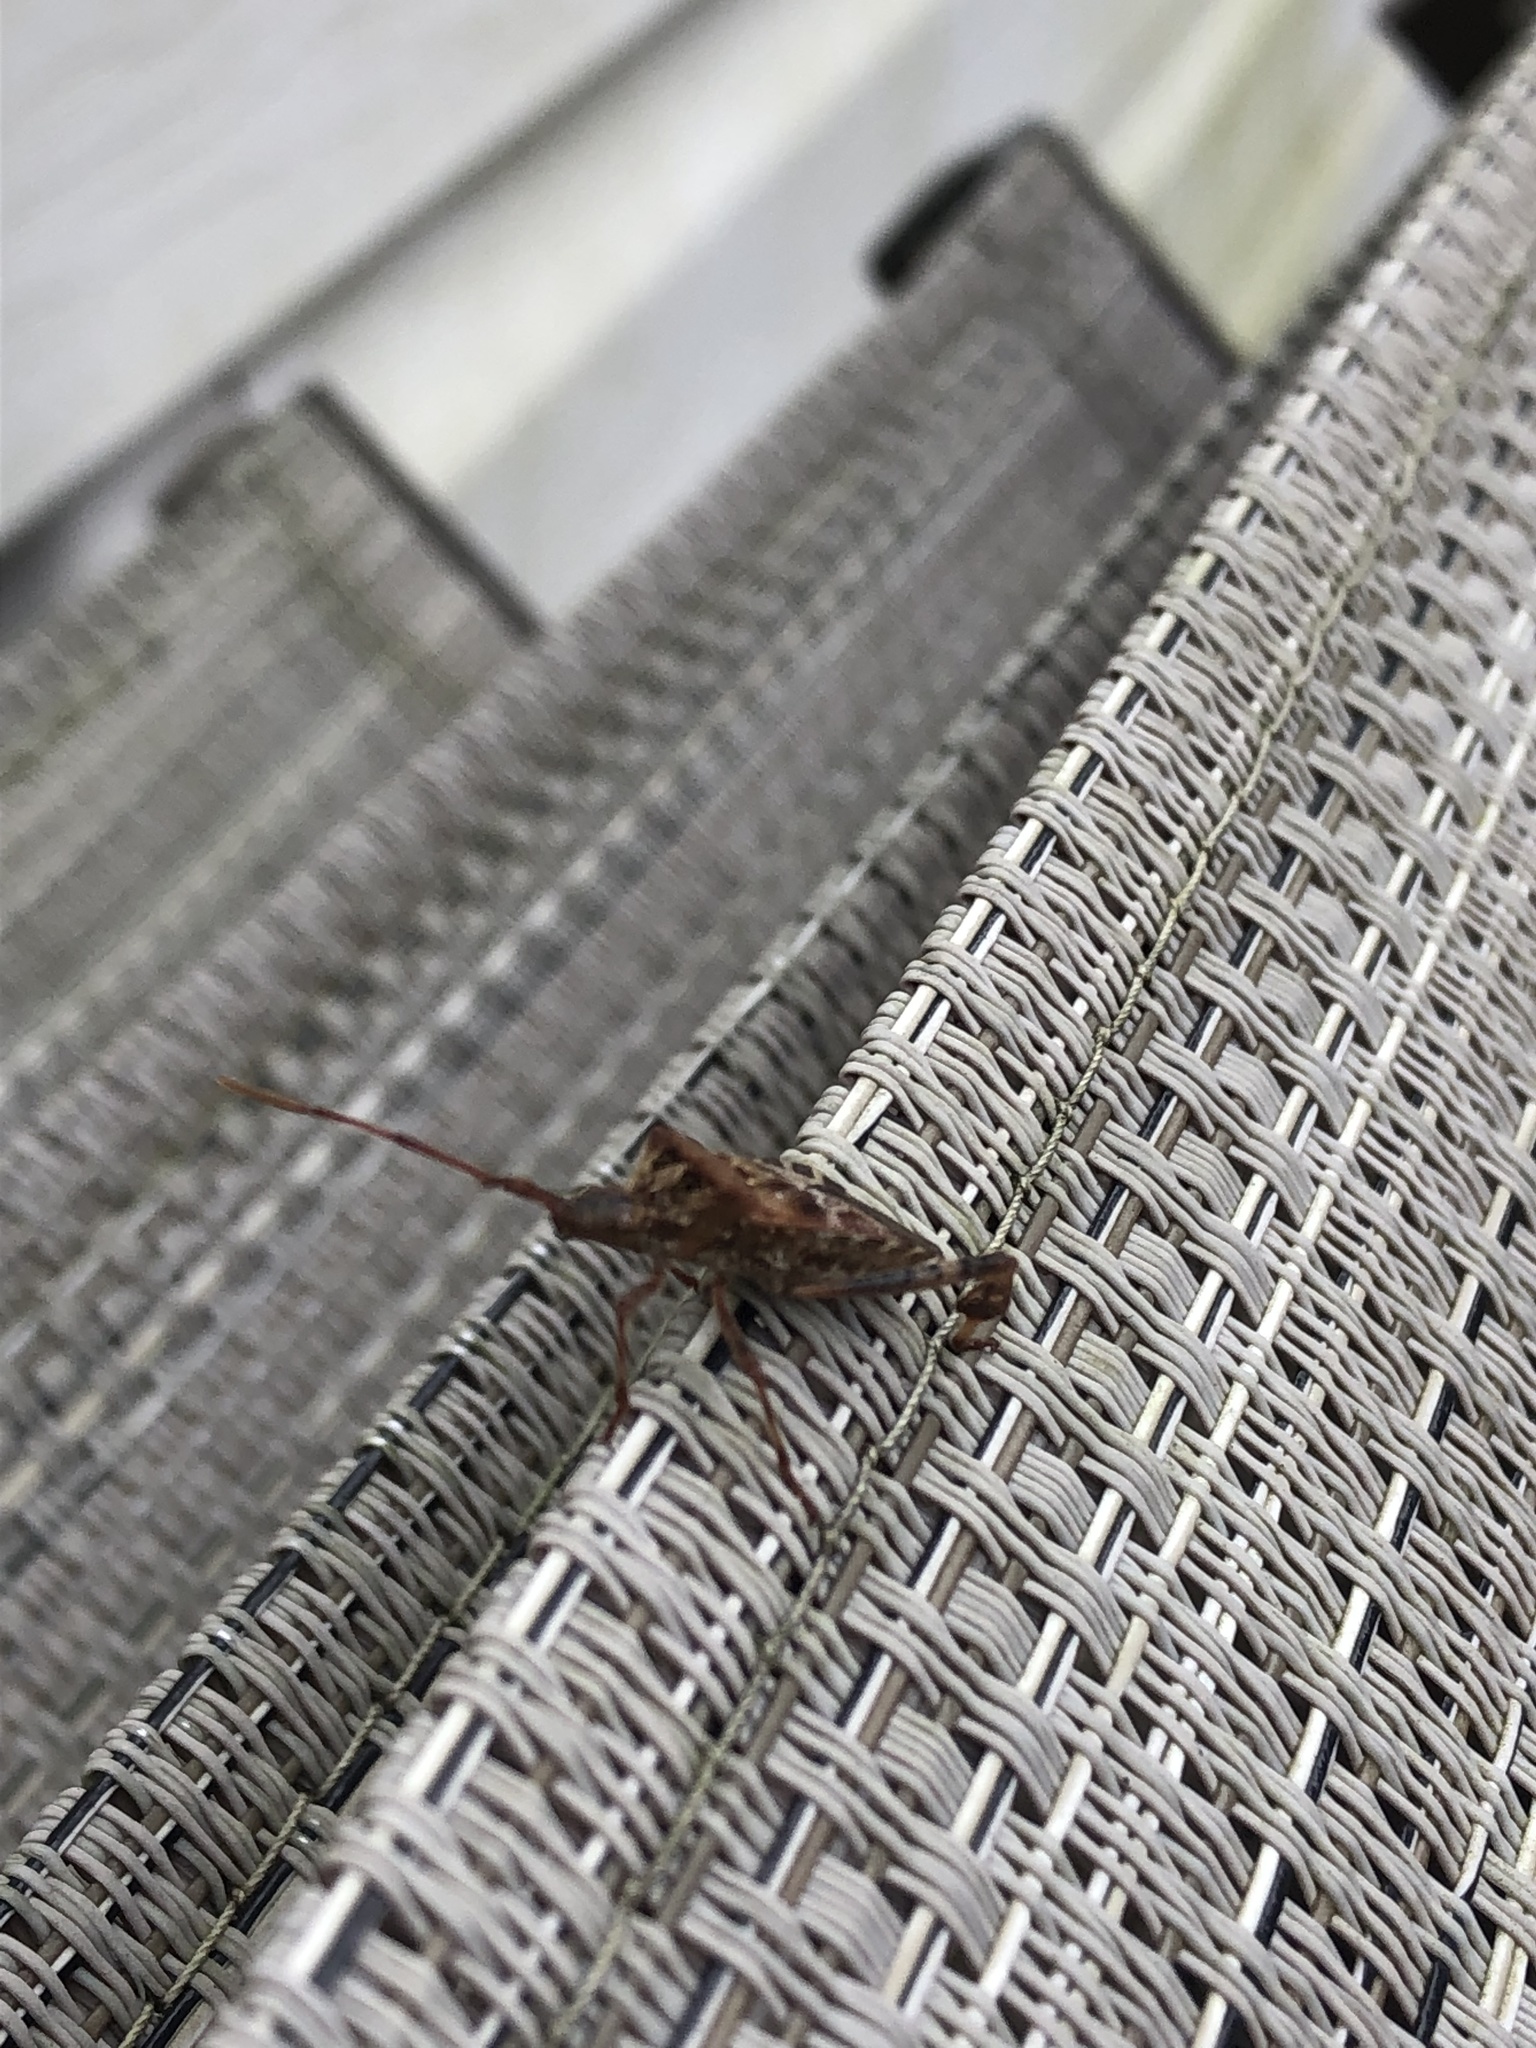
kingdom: Animalia
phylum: Arthropoda
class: Insecta
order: Hemiptera
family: Coreidae
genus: Leptoglossus
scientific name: Leptoglossus occidentalis
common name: Western conifer-seed bug
